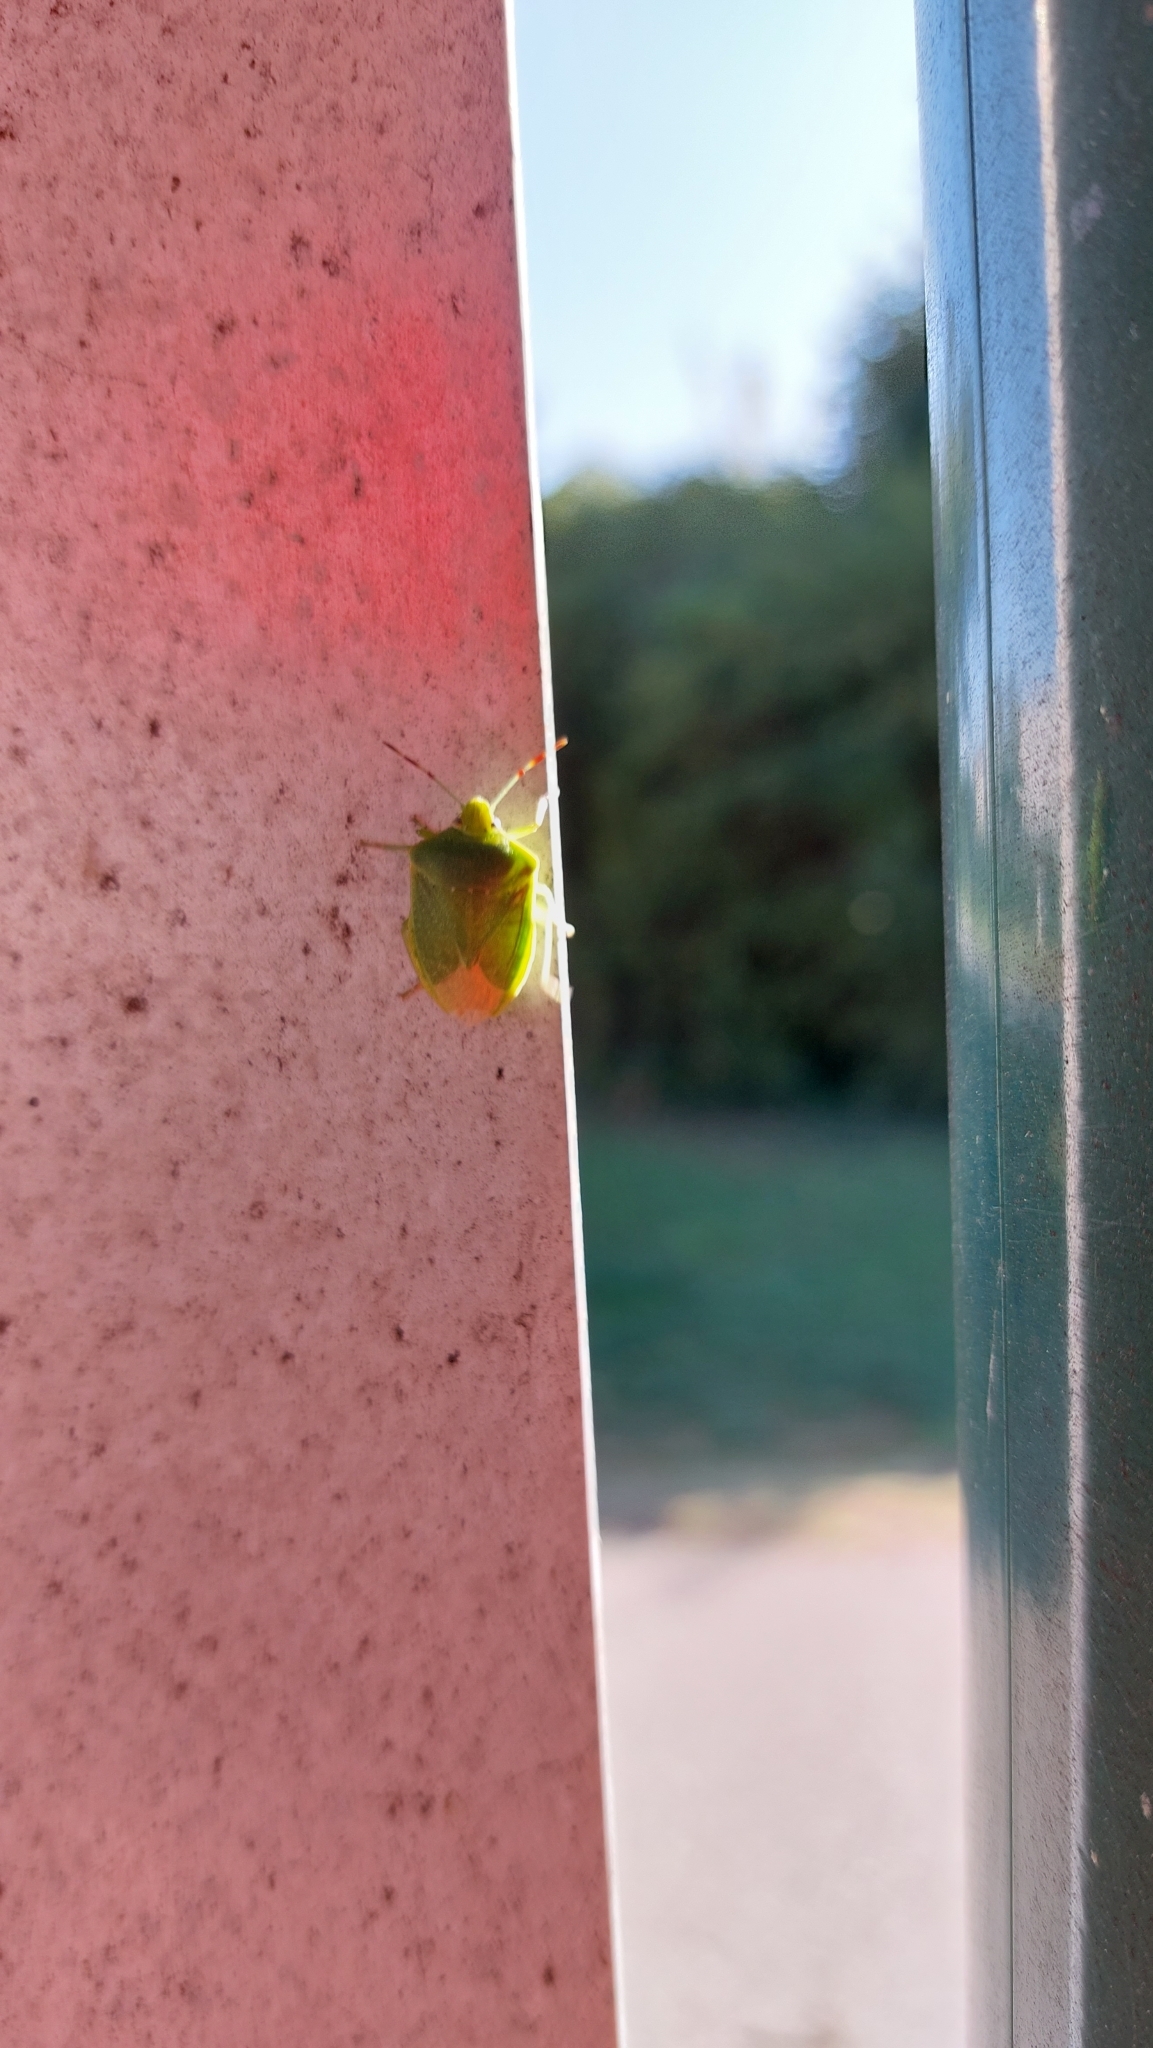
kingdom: Animalia
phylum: Arthropoda
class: Insecta
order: Hemiptera
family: Pentatomidae
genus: Nezara
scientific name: Nezara viridula
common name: Southern green stink bug
